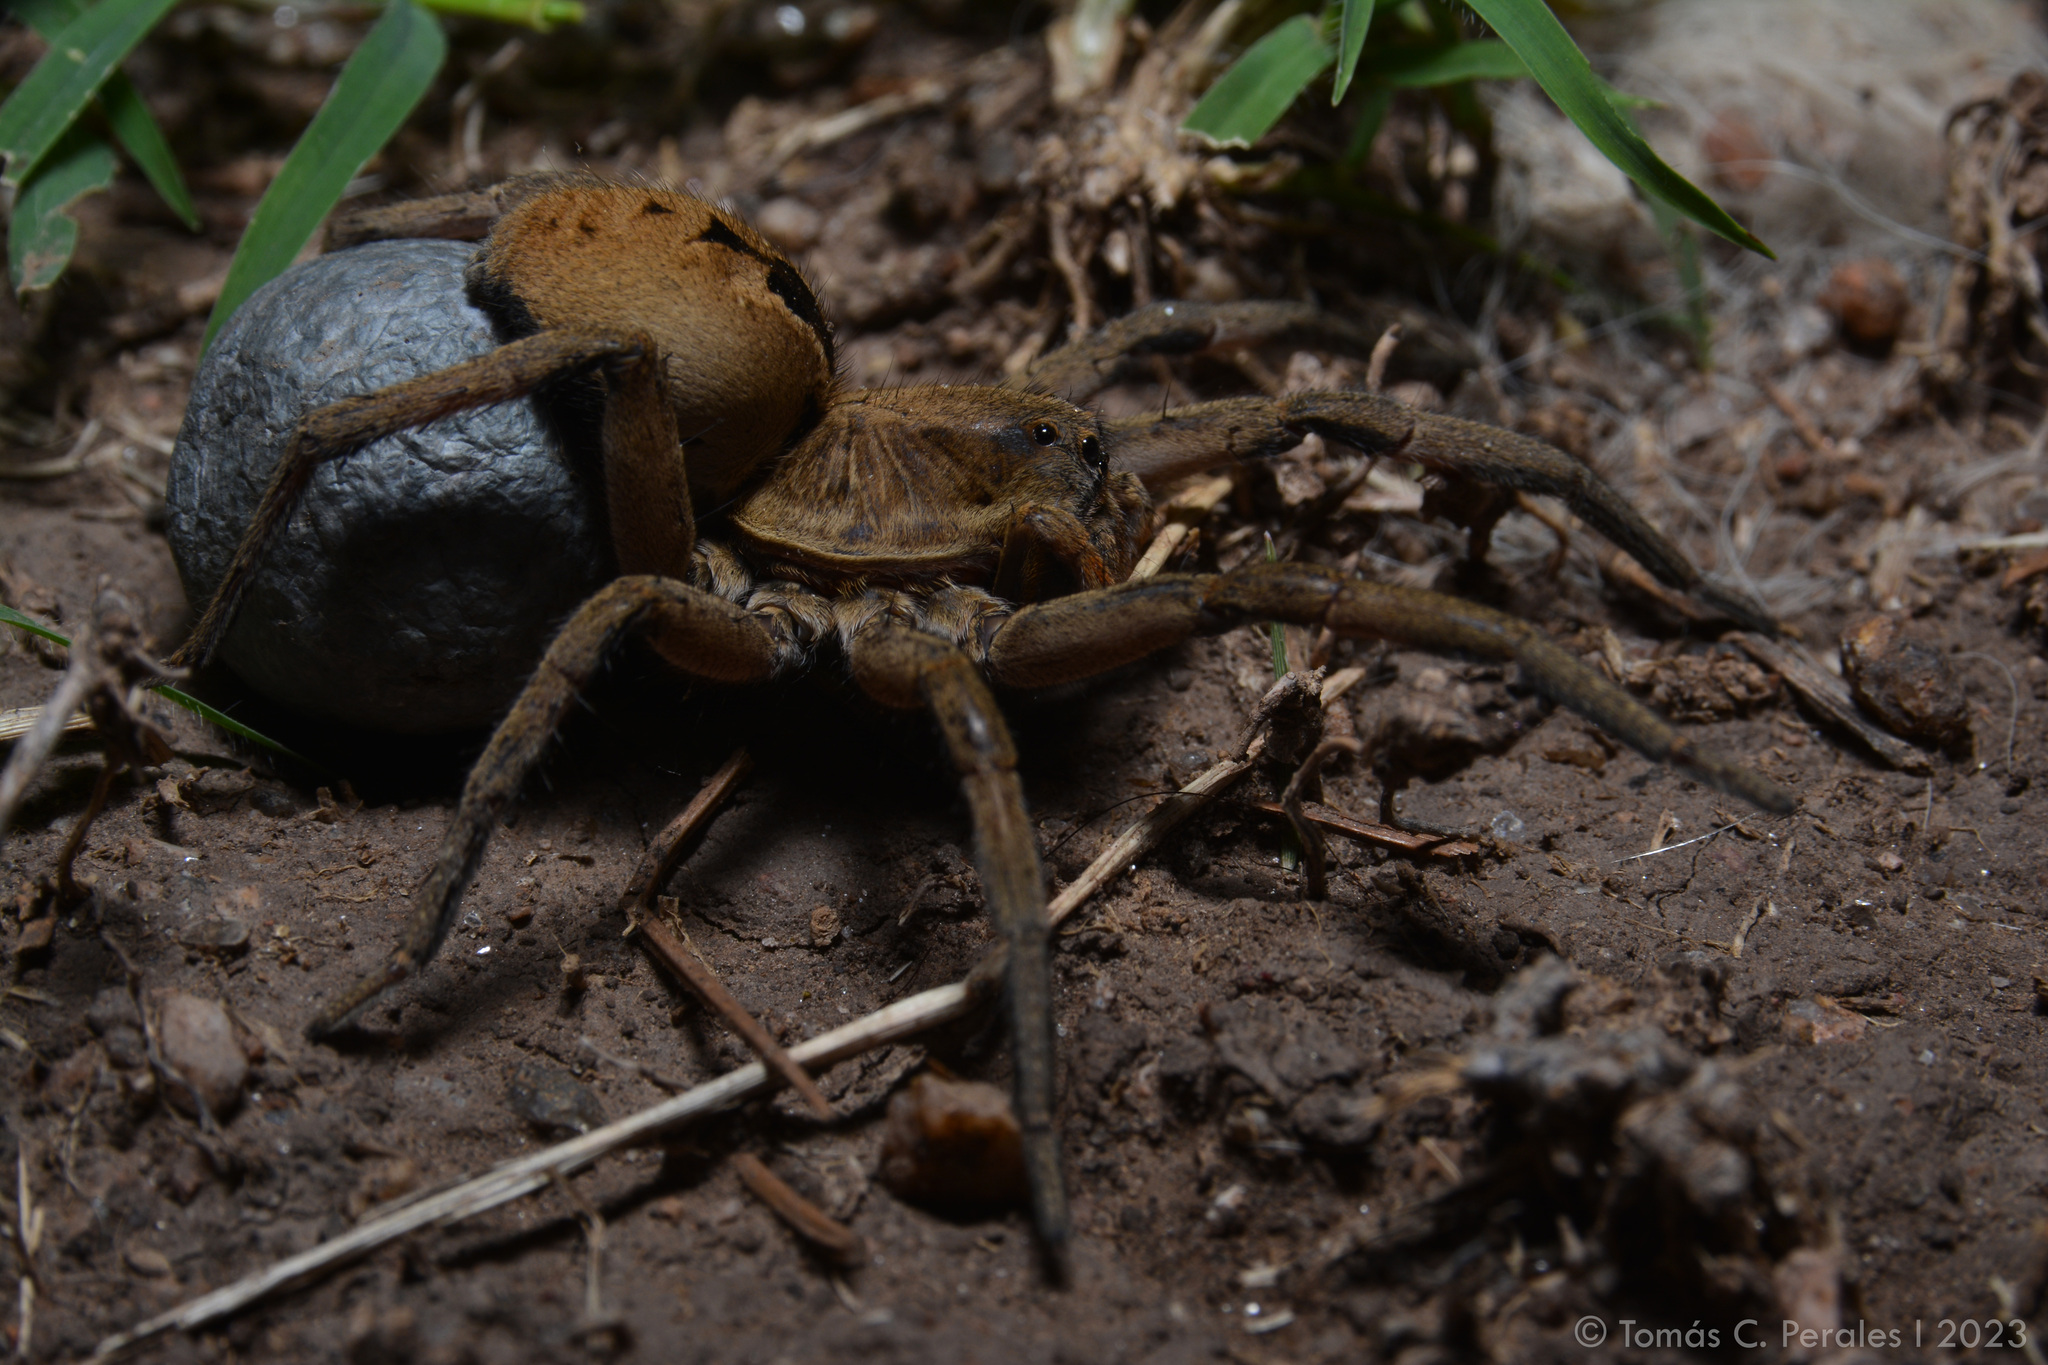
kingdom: Animalia
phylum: Arthropoda
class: Arachnida
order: Araneae
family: Lycosidae
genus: Lycosa
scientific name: Lycosa erythrognatha
